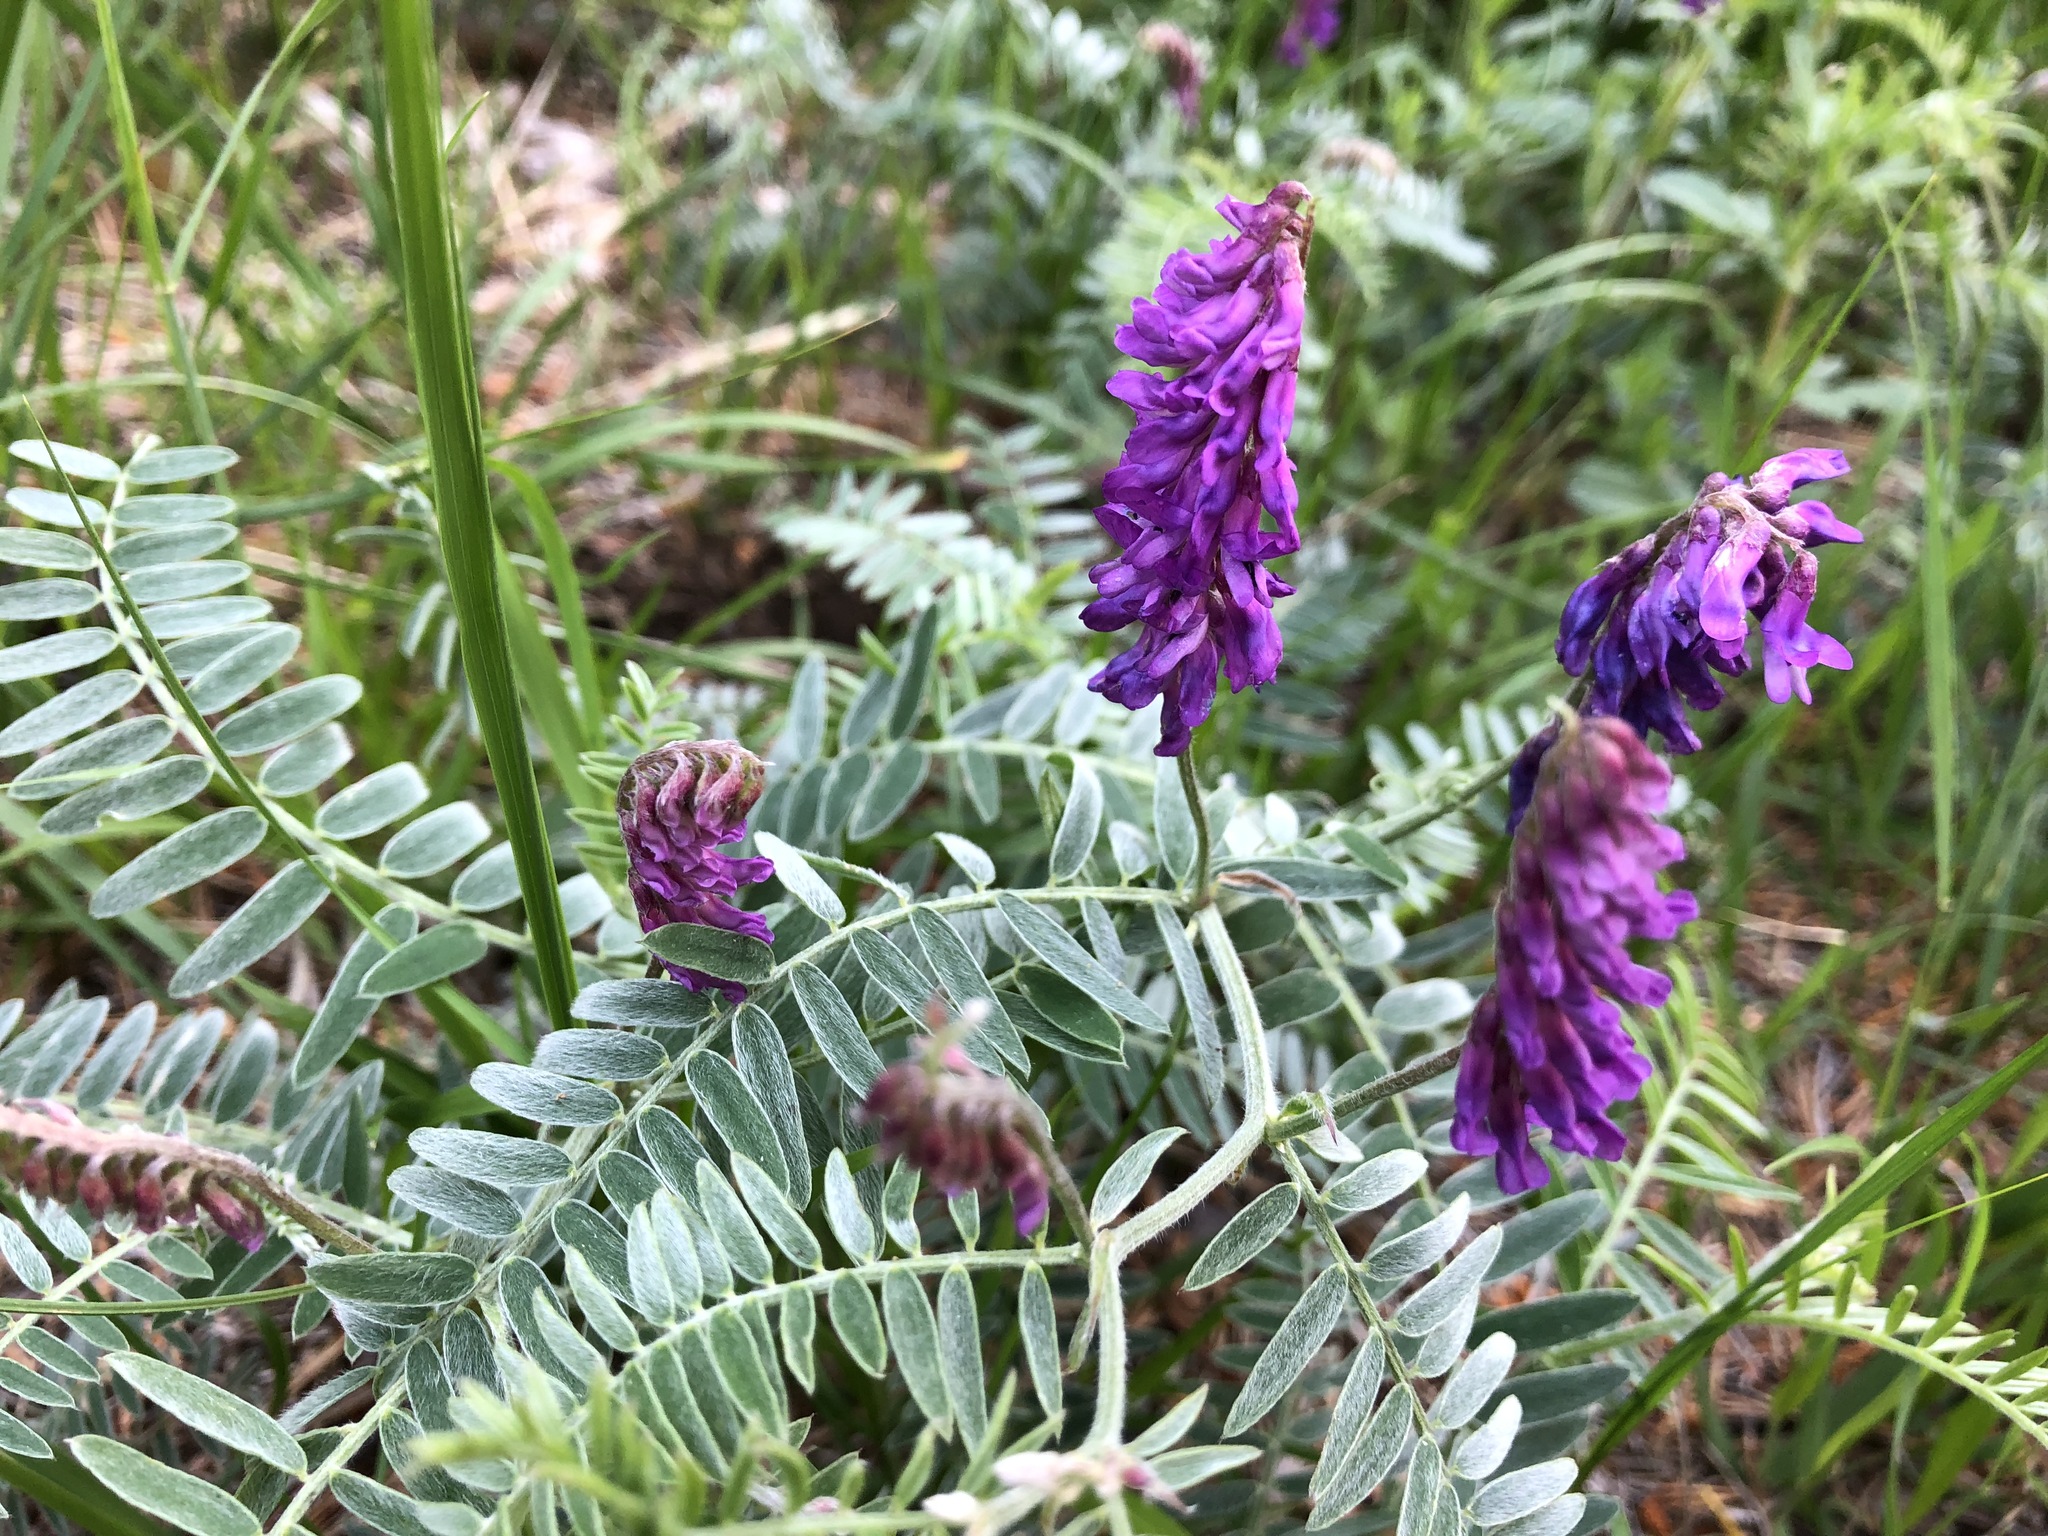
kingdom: Plantae
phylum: Tracheophyta
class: Magnoliopsida
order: Fabales
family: Fabaceae
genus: Vicia
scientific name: Vicia cracca
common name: Bird vetch
